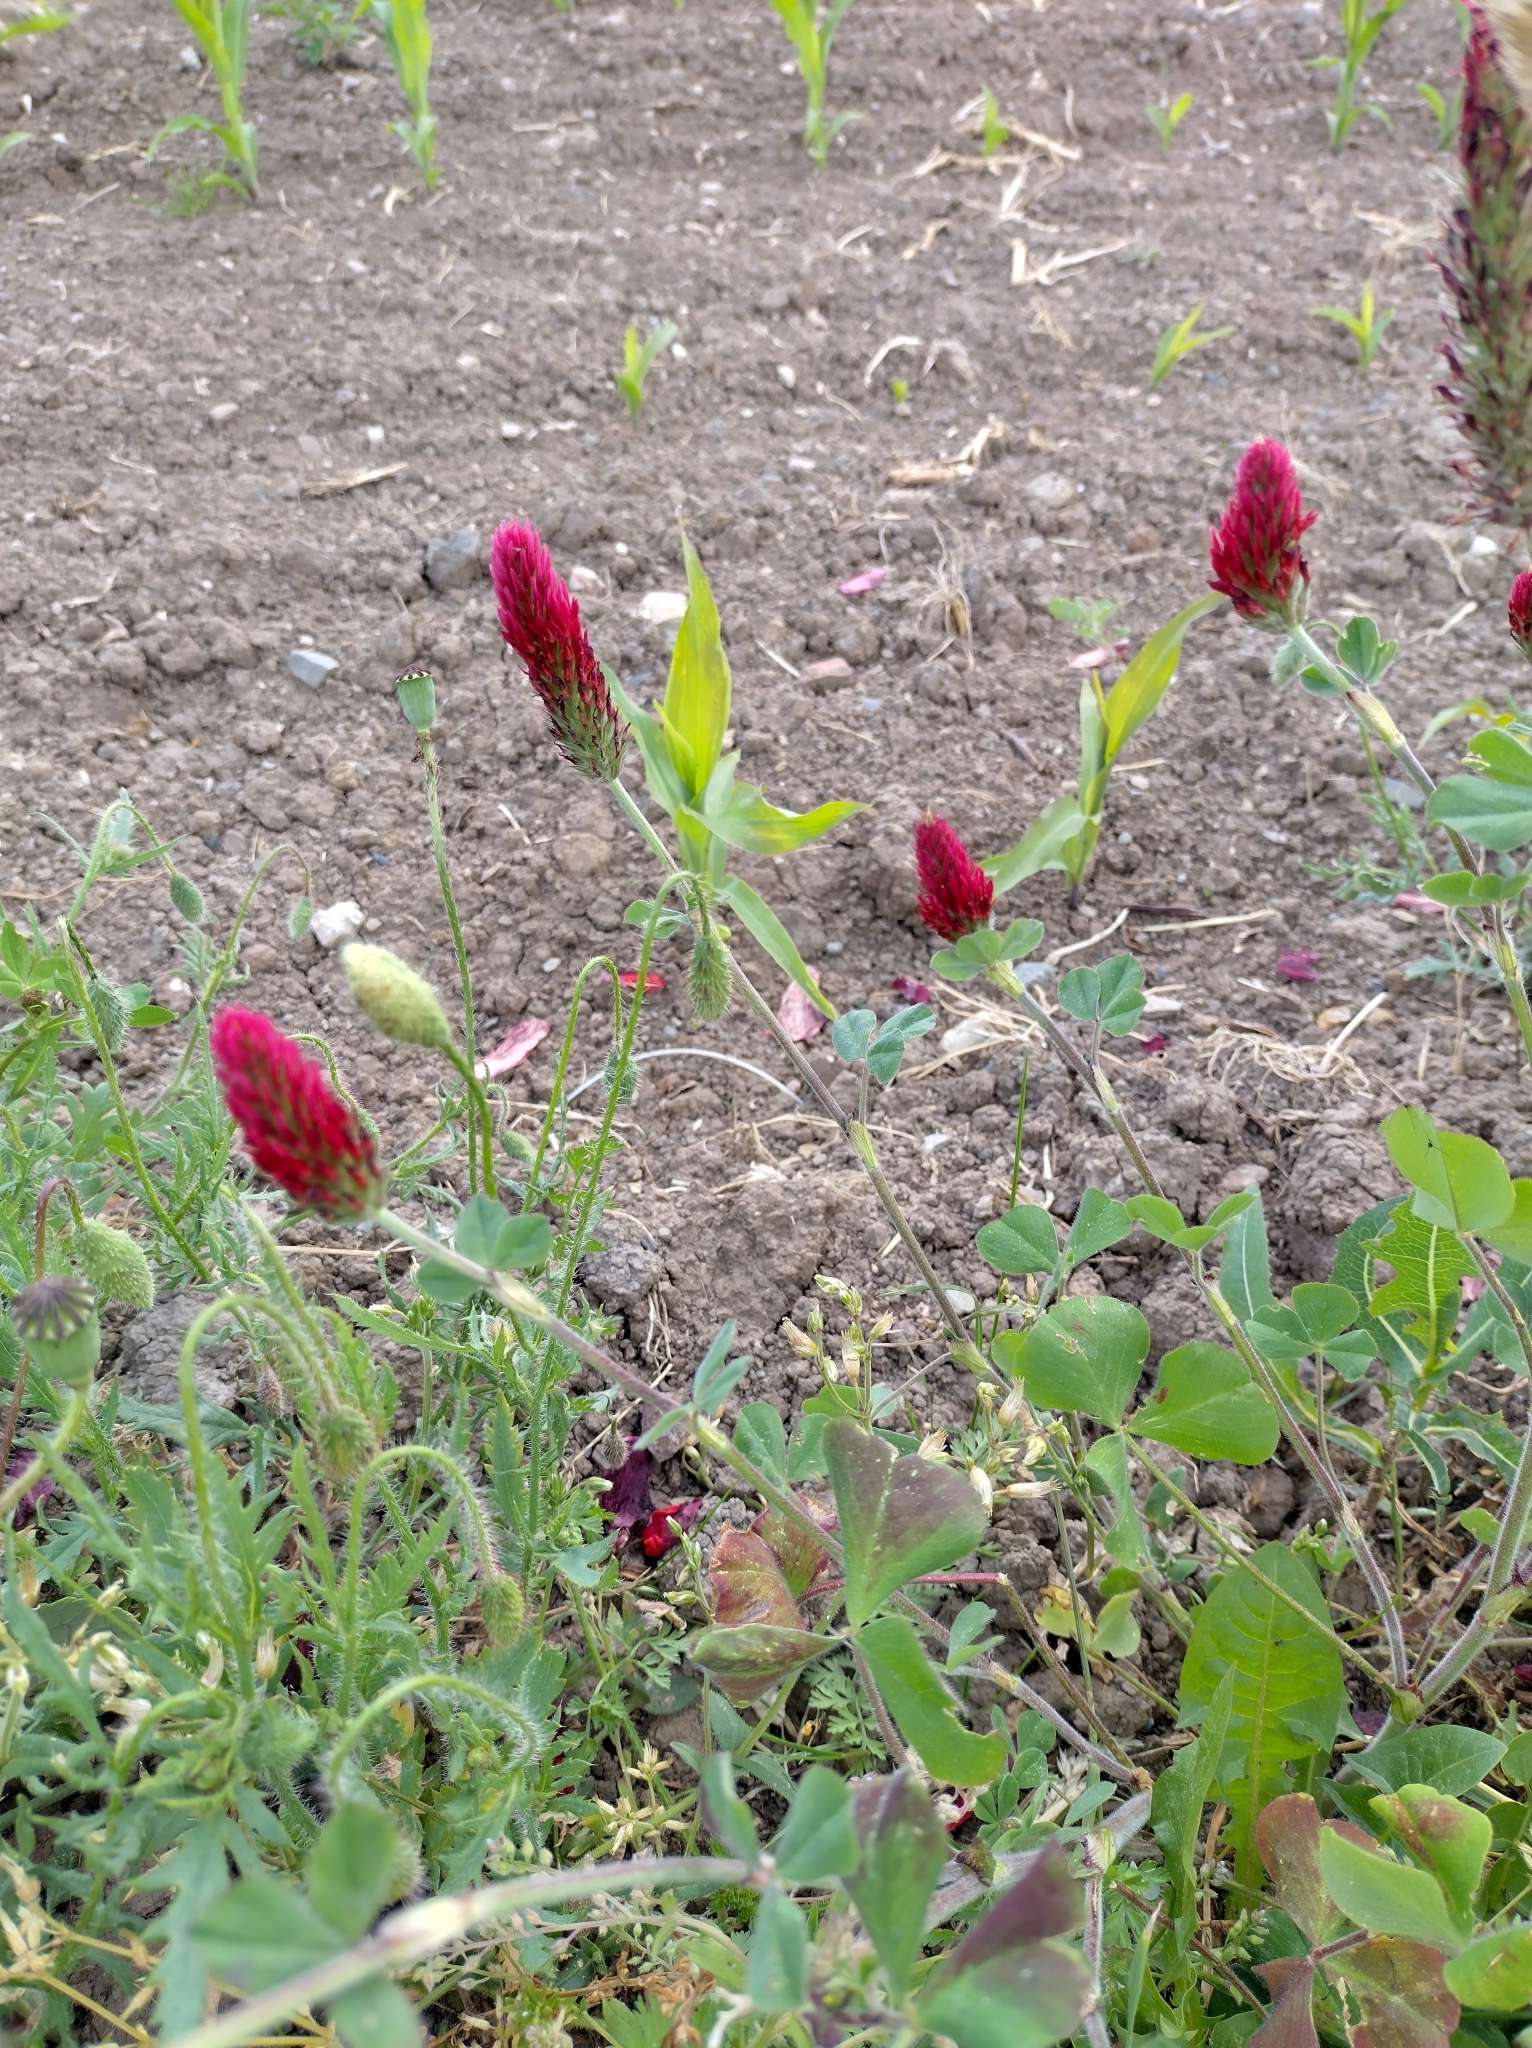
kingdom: Plantae
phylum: Tracheophyta
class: Magnoliopsida
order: Fabales
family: Fabaceae
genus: Trifolium
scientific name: Trifolium incarnatum
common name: Crimson clover
